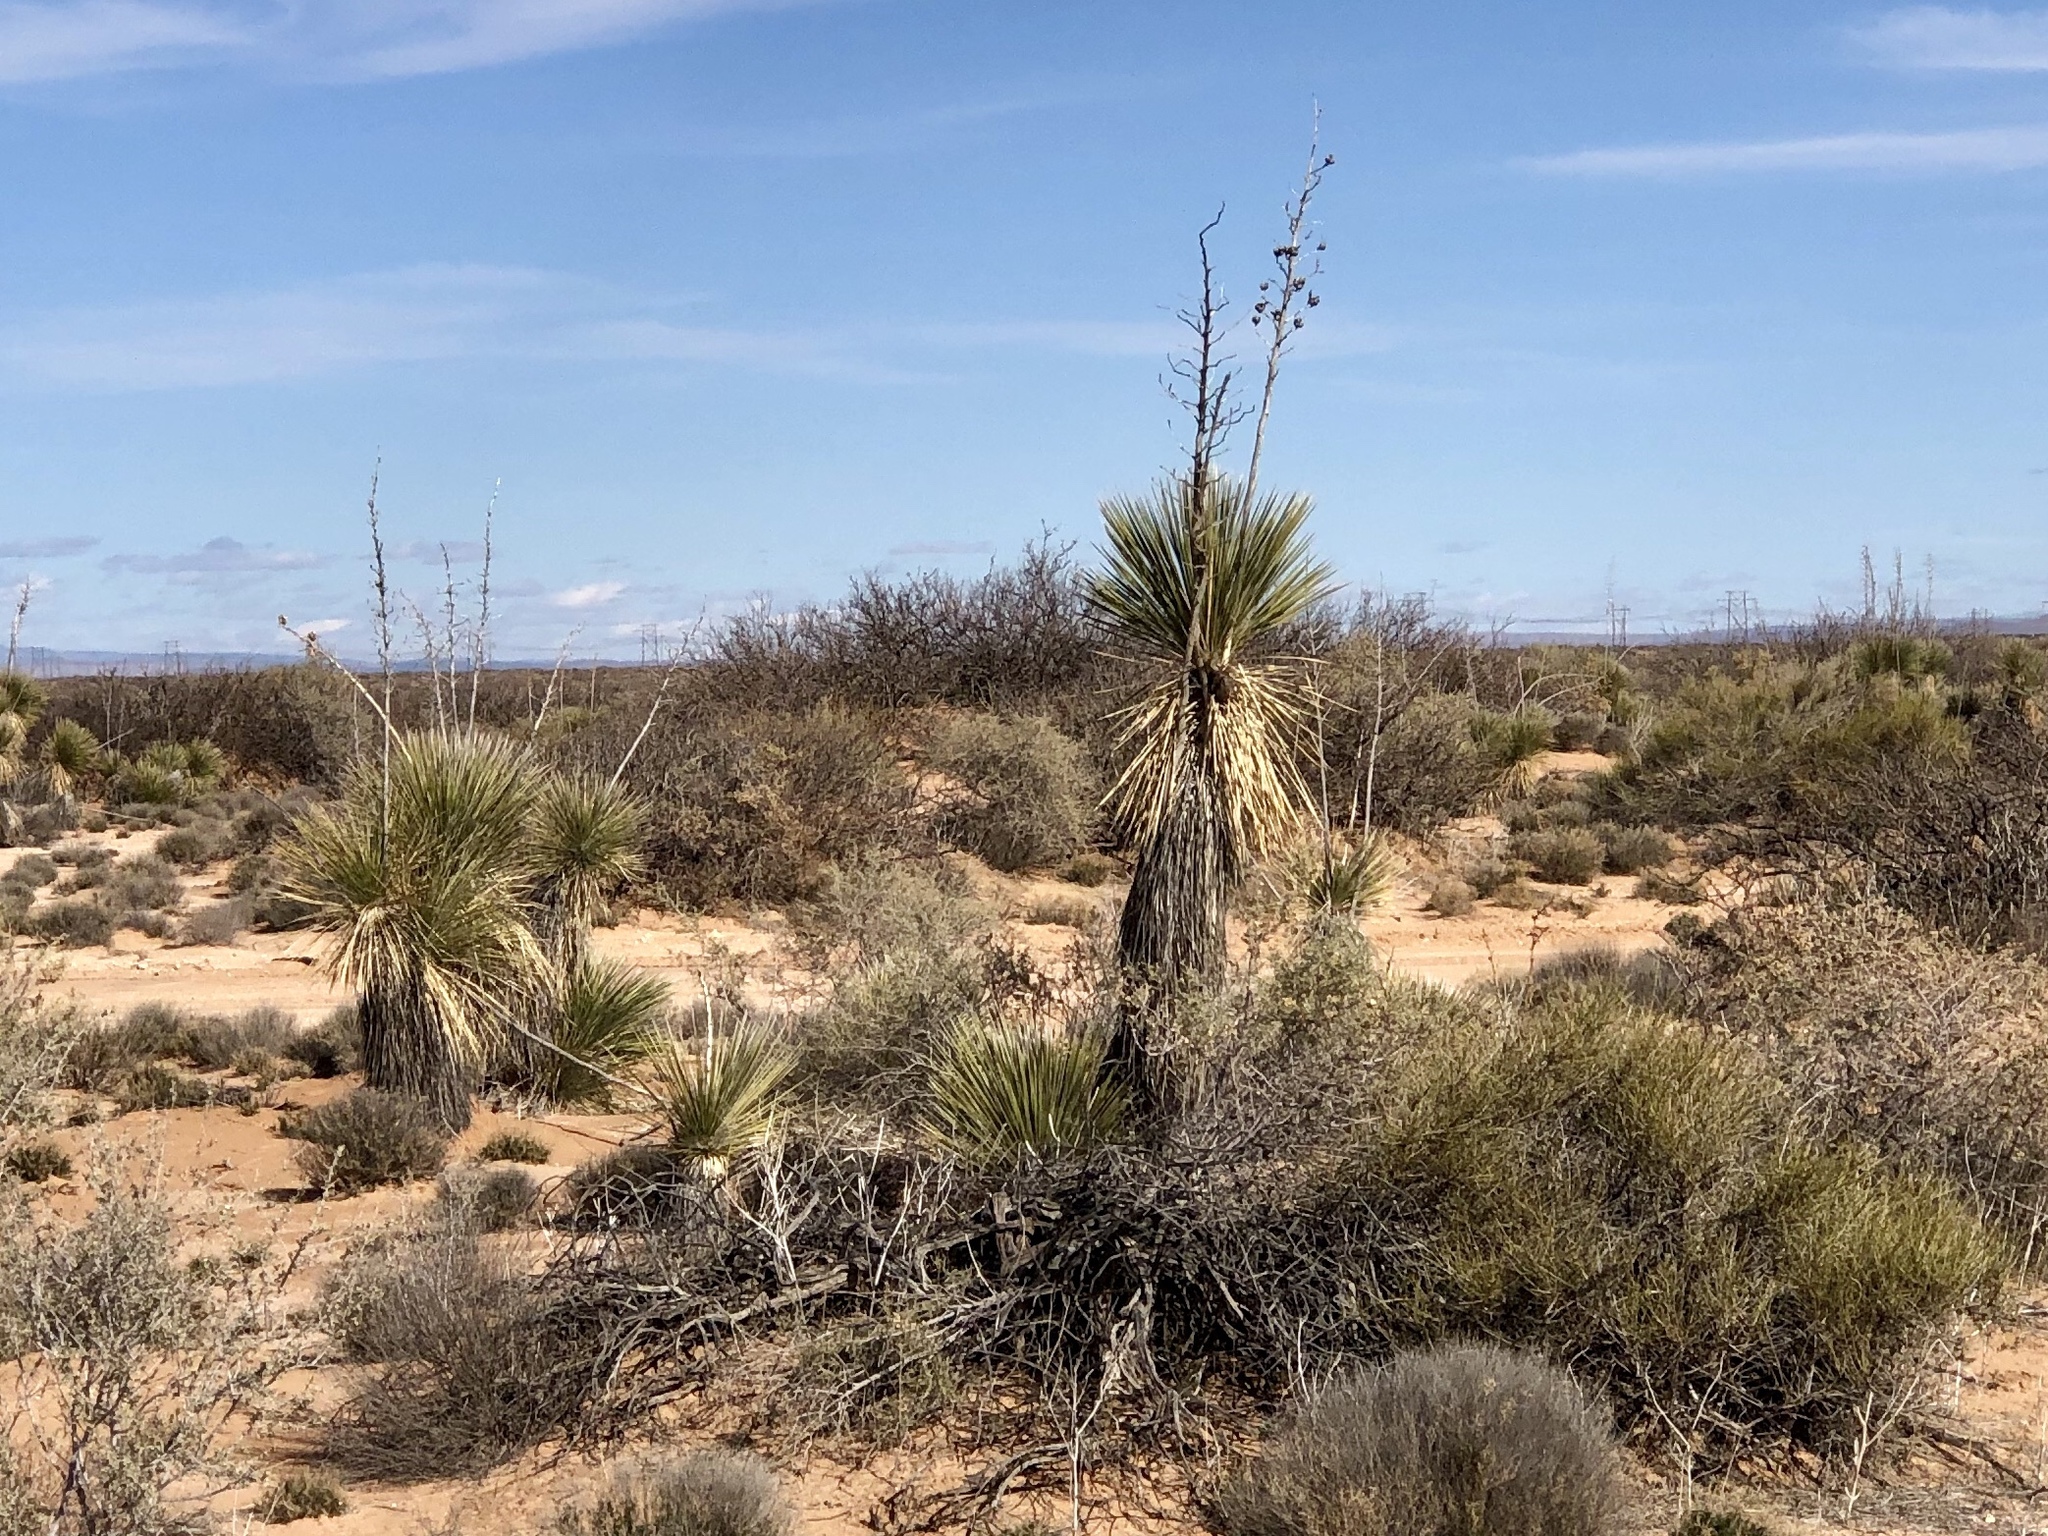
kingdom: Plantae
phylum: Tracheophyta
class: Liliopsida
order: Asparagales
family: Asparagaceae
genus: Yucca
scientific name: Yucca elata
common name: Palmella
